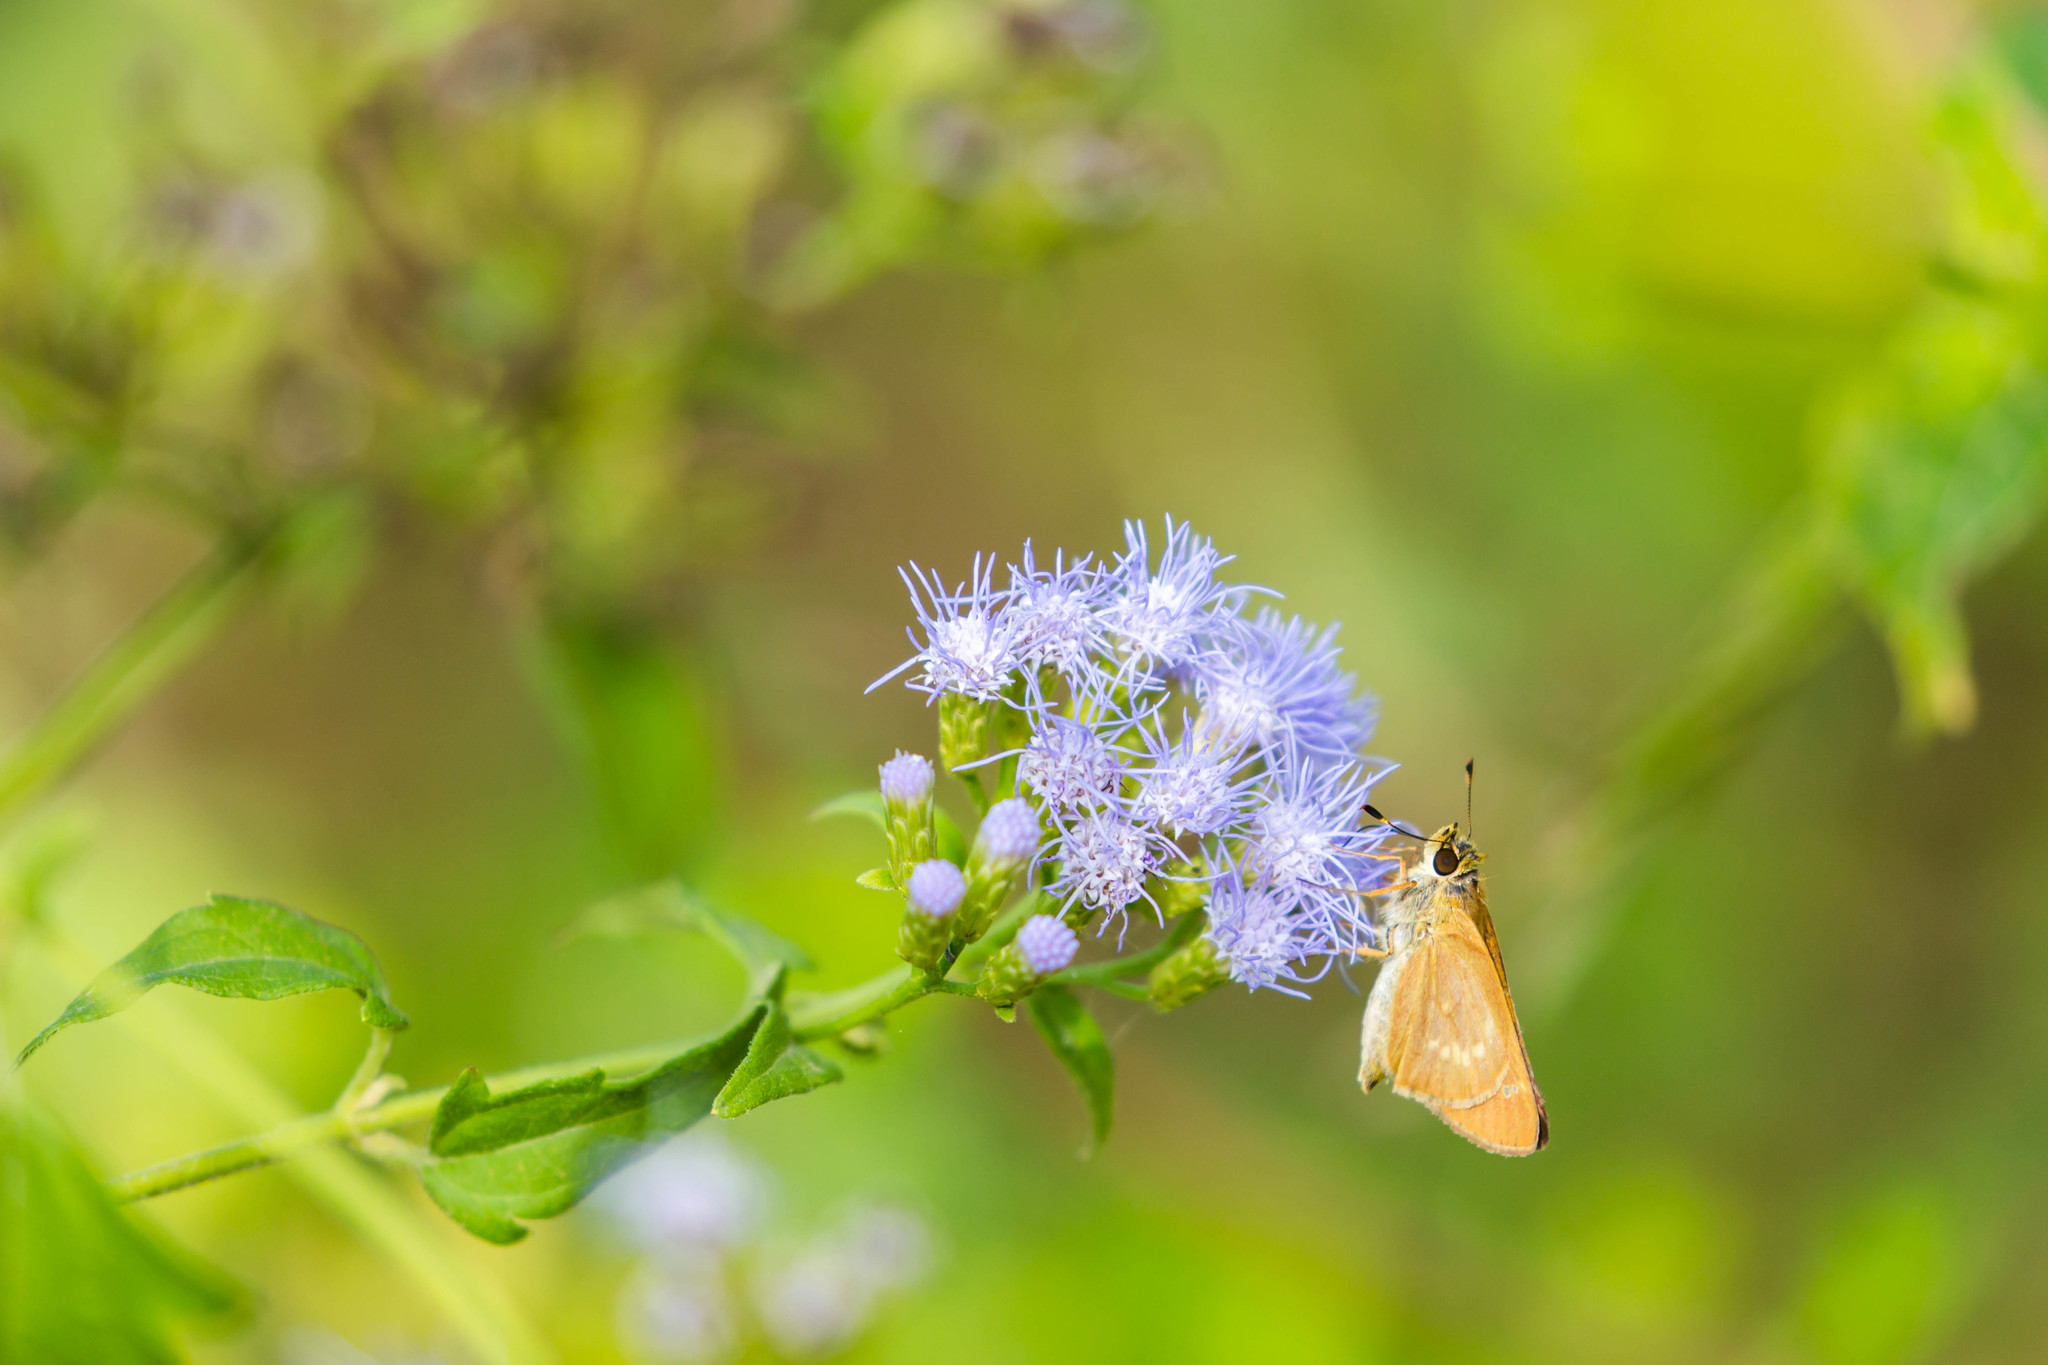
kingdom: Animalia
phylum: Arthropoda
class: Insecta
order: Lepidoptera
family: Hesperiidae
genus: Mellana
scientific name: Mellana eulogius
